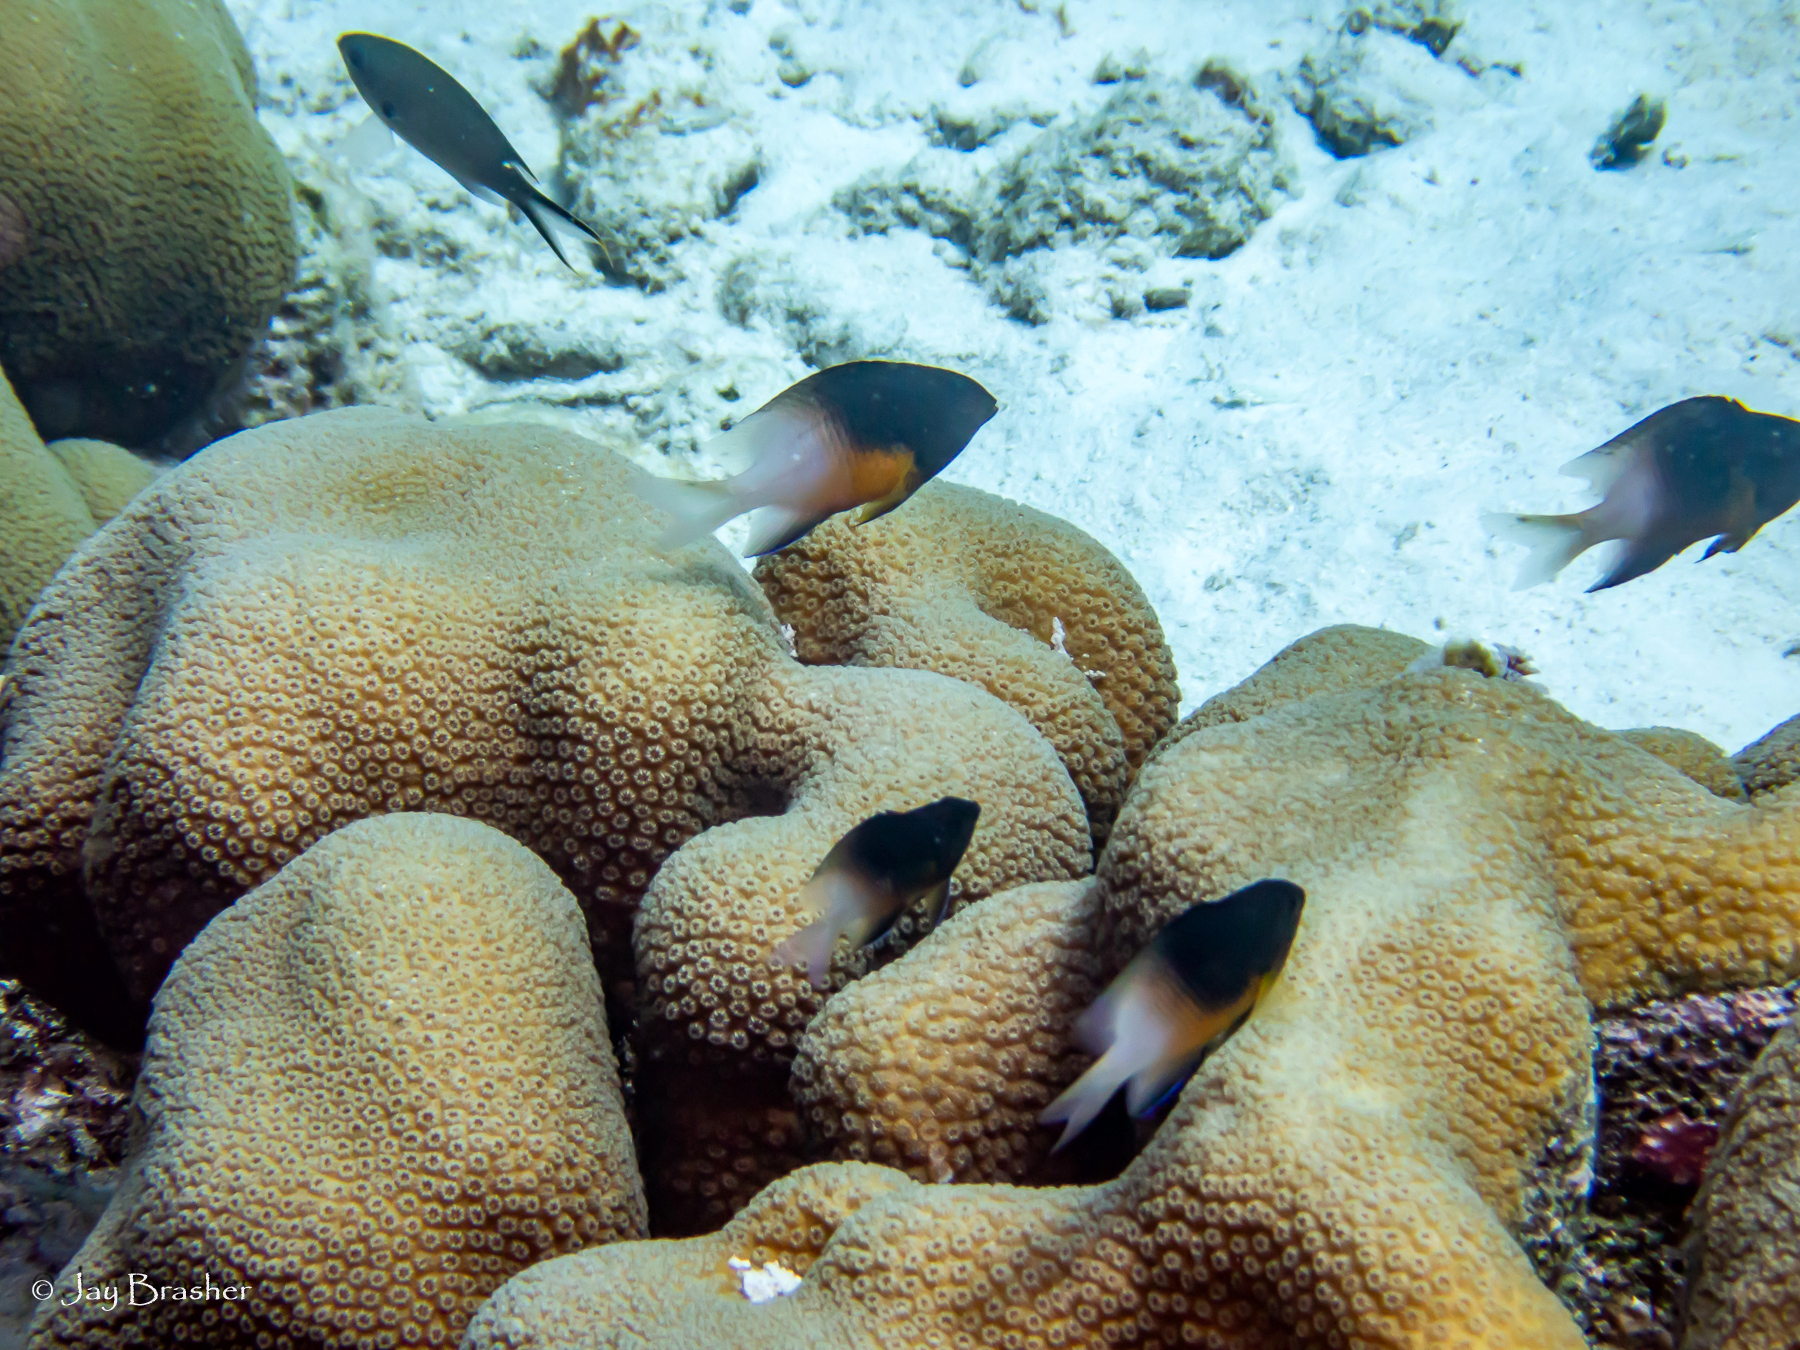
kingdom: Animalia
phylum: Chordata
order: Perciformes
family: Pomacentridae
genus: Chromis
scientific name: Chromis multilineata
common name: Brown chromis
